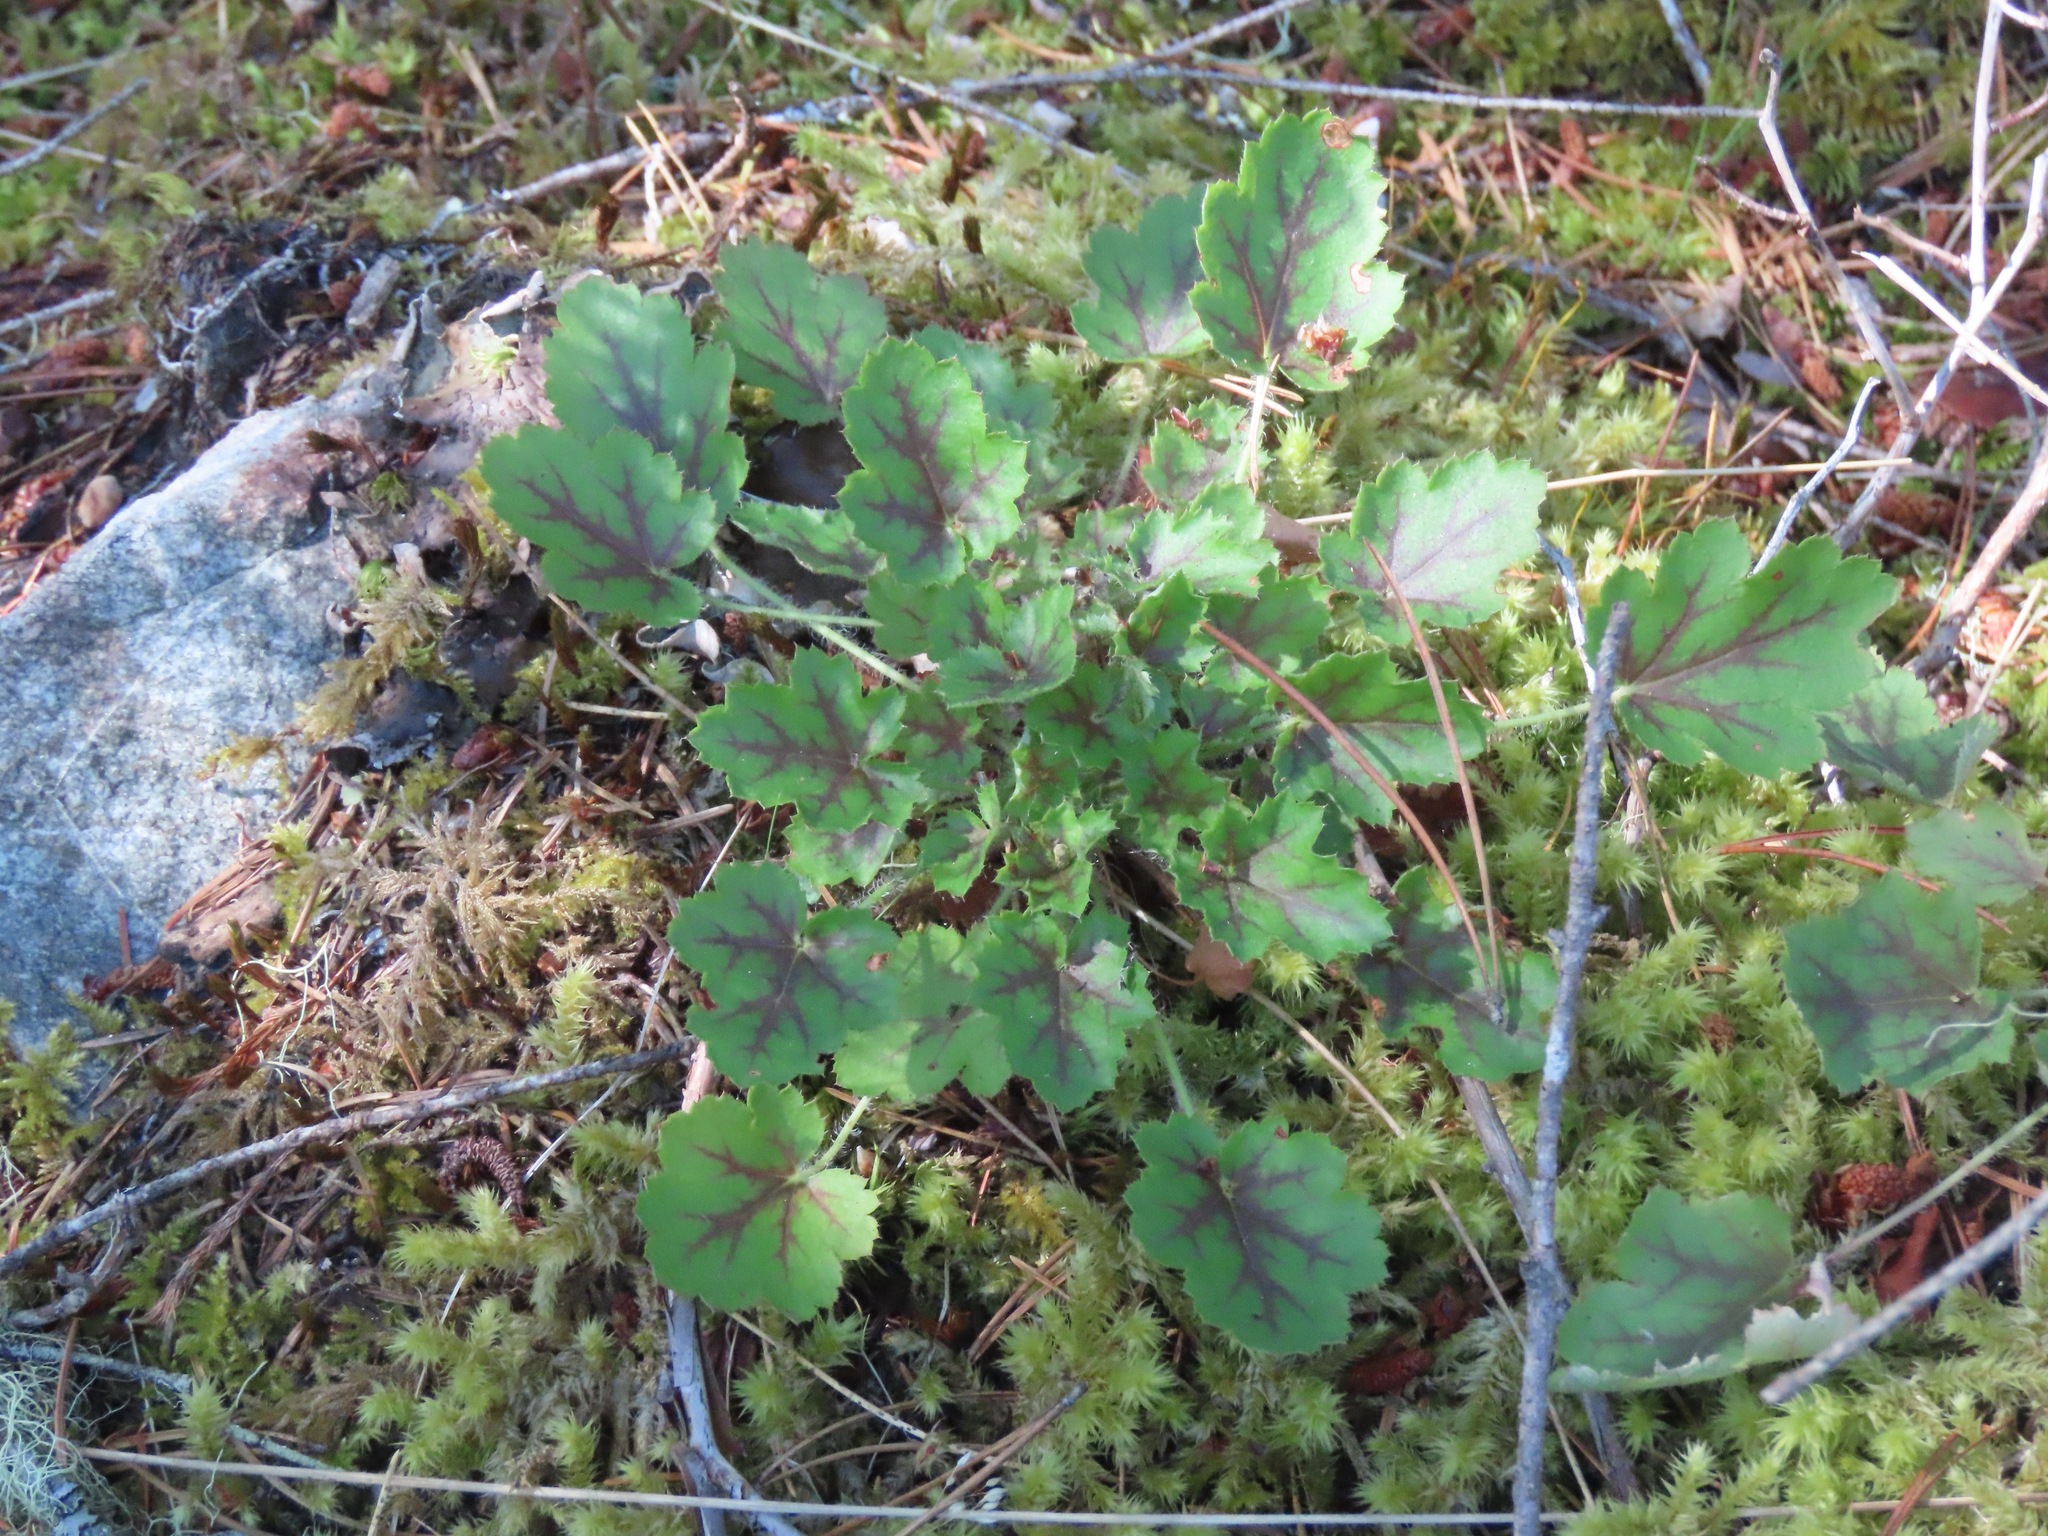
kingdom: Plantae
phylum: Tracheophyta
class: Magnoliopsida
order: Saxifragales
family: Saxifragaceae
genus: Heuchera
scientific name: Heuchera micrantha
